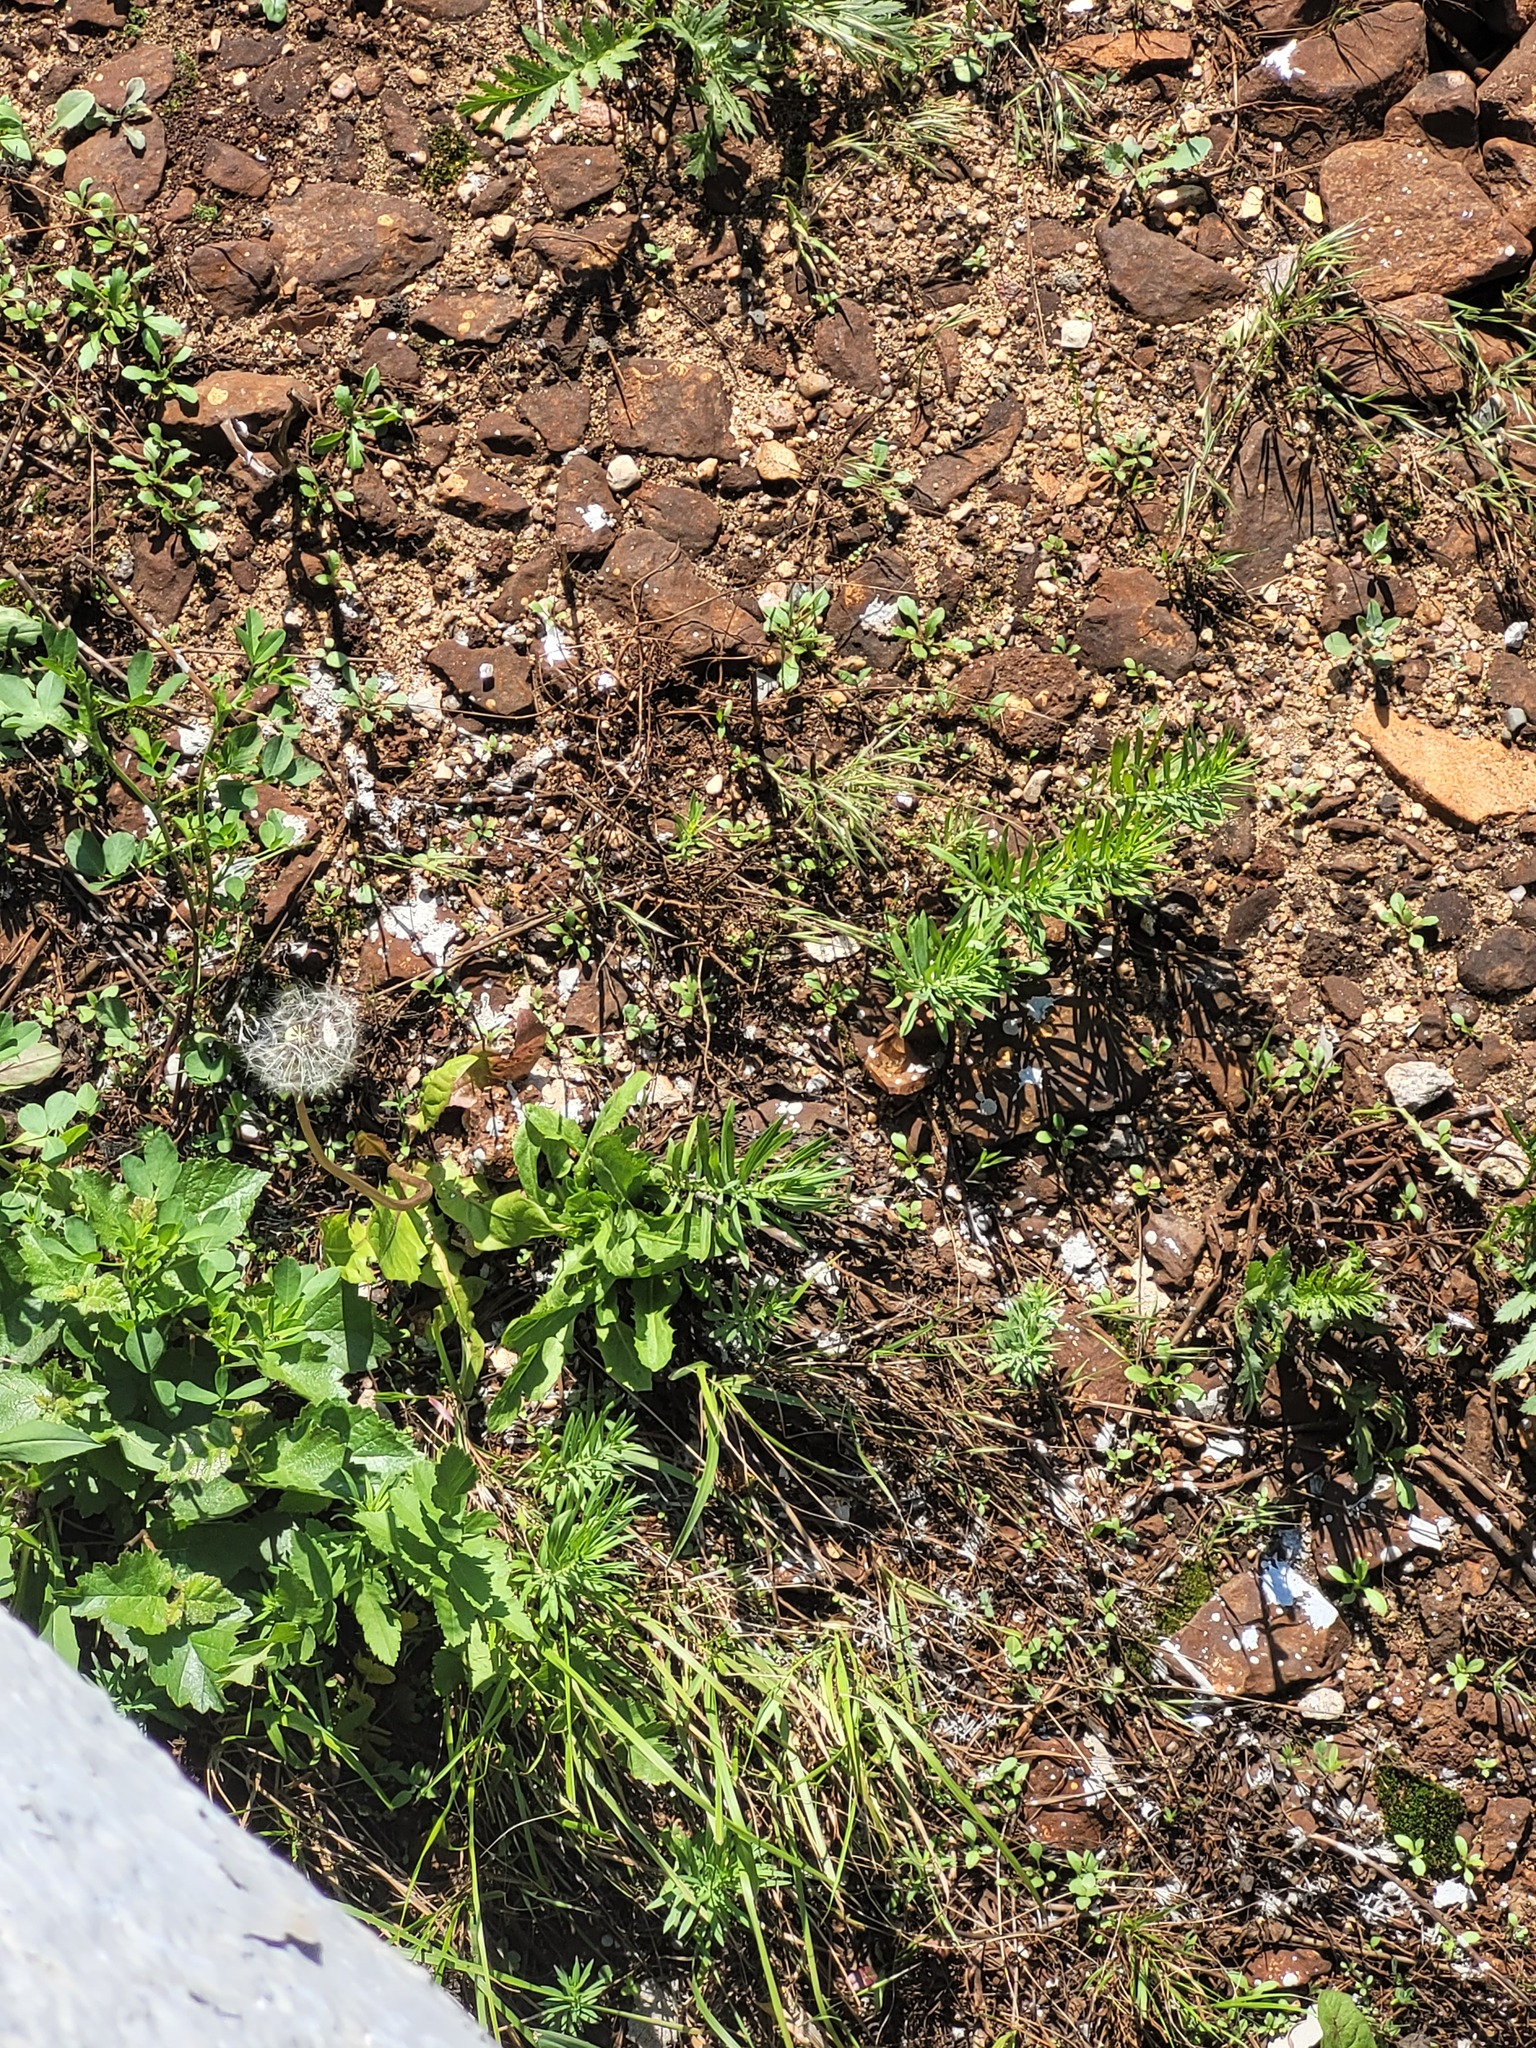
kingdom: Plantae
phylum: Tracheophyta
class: Magnoliopsida
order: Lamiales
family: Plantaginaceae
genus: Linaria
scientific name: Linaria vulgaris
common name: Butter and eggs
